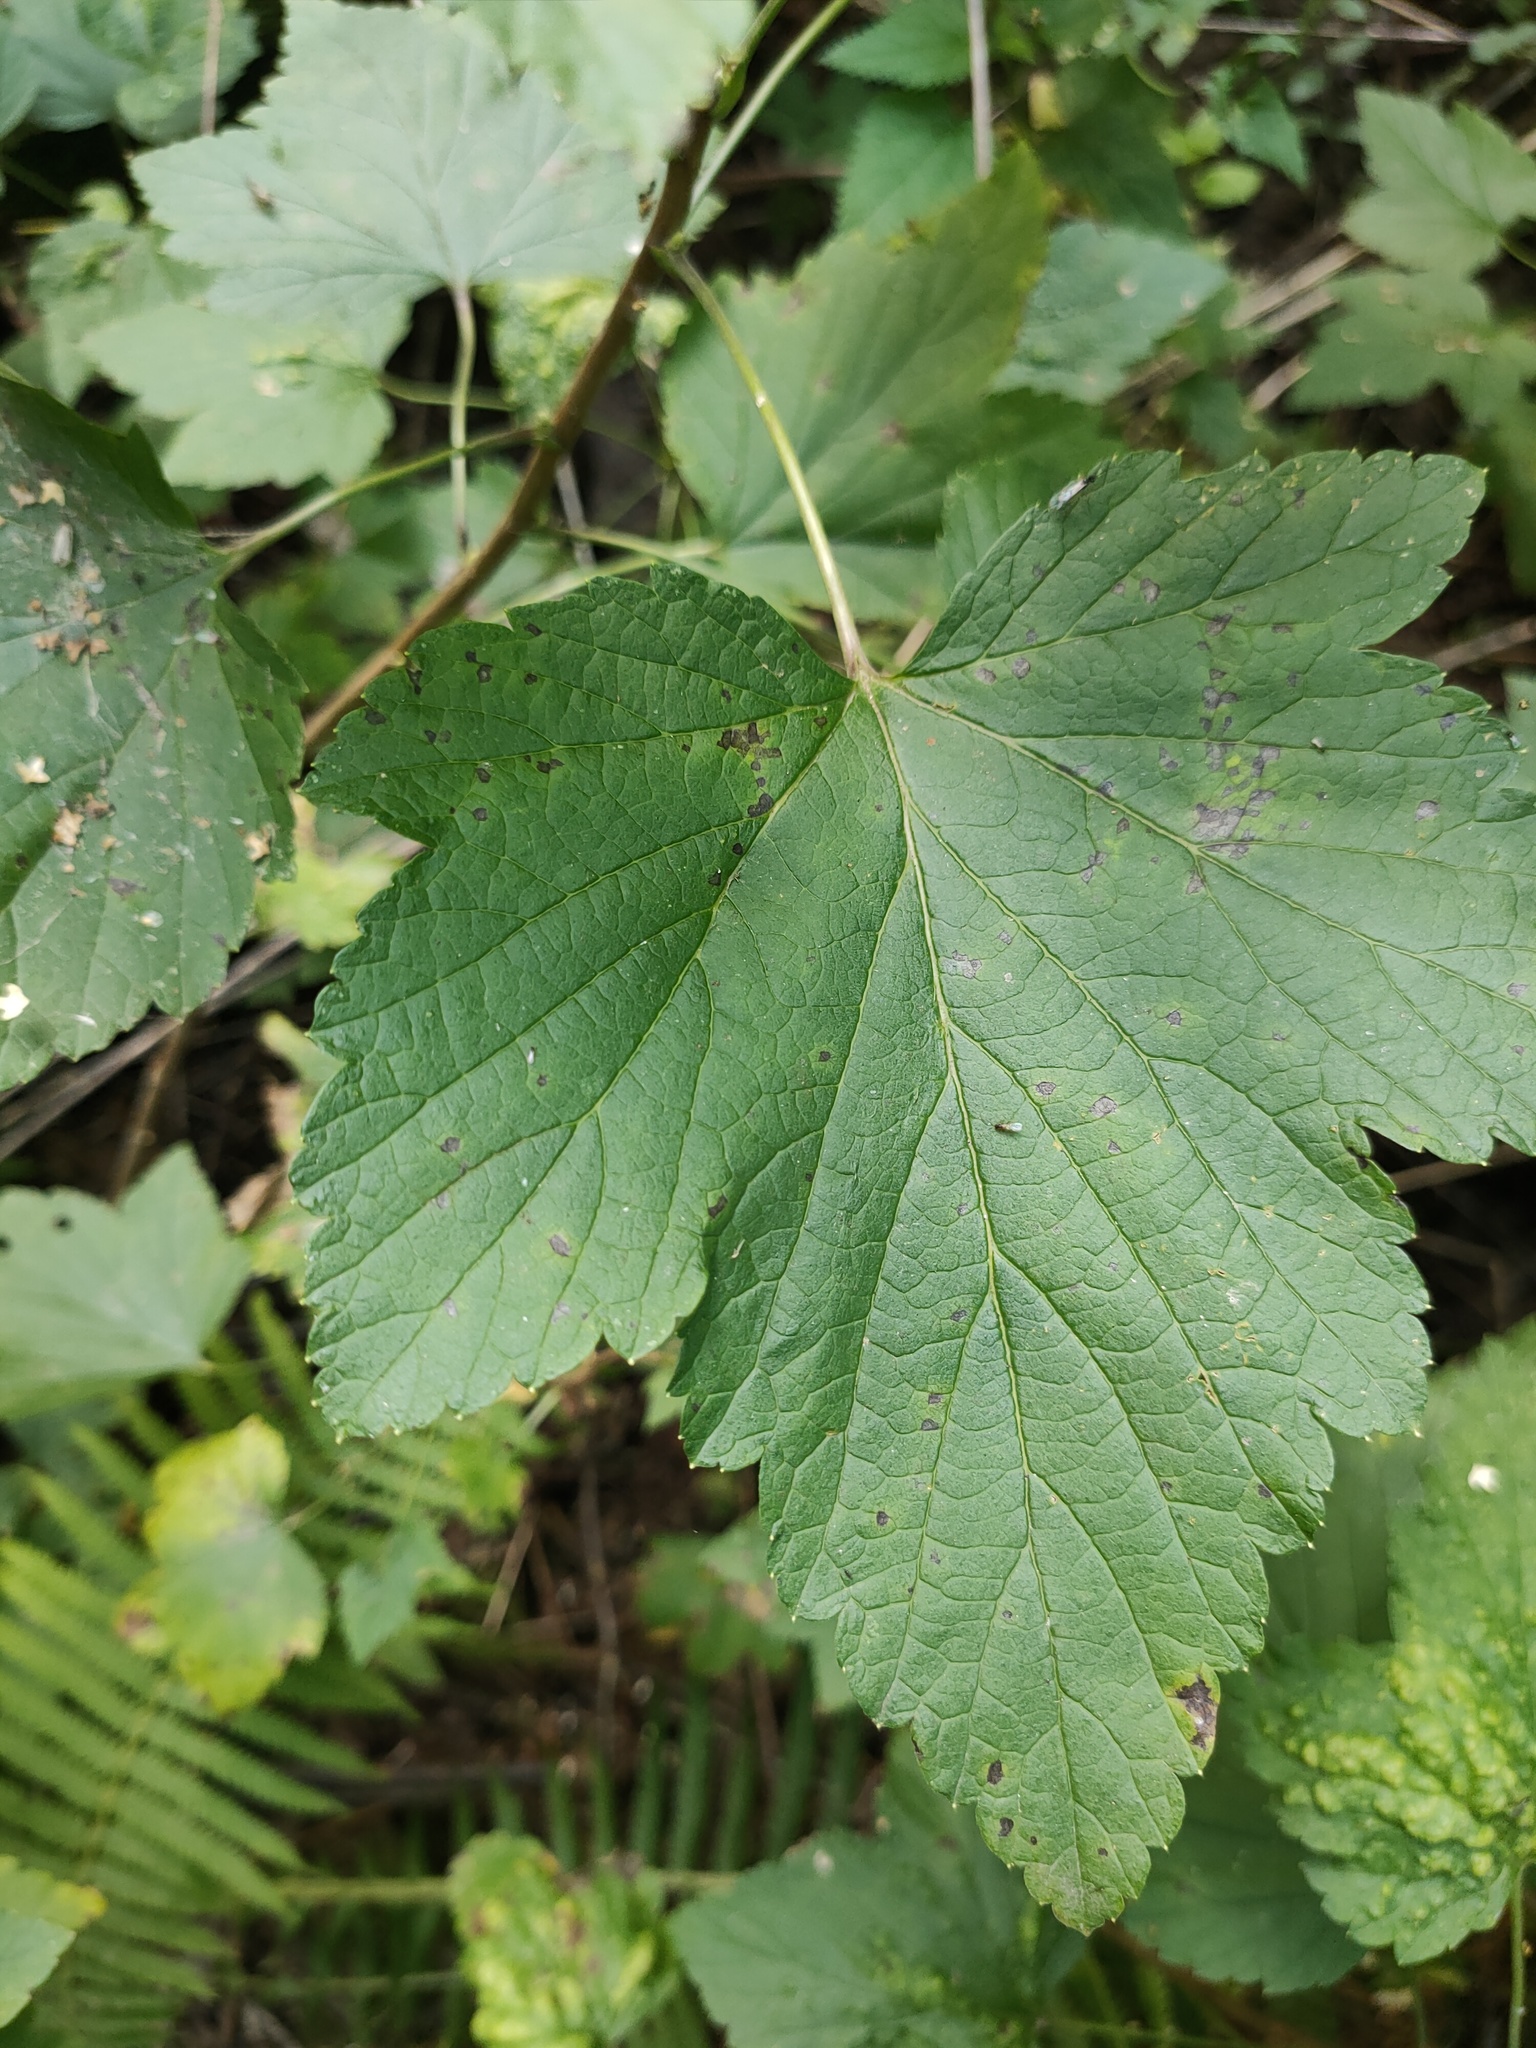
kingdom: Plantae
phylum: Tracheophyta
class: Magnoliopsida
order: Saxifragales
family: Grossulariaceae
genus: Ribes
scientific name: Ribes nigrum
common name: Black currant
